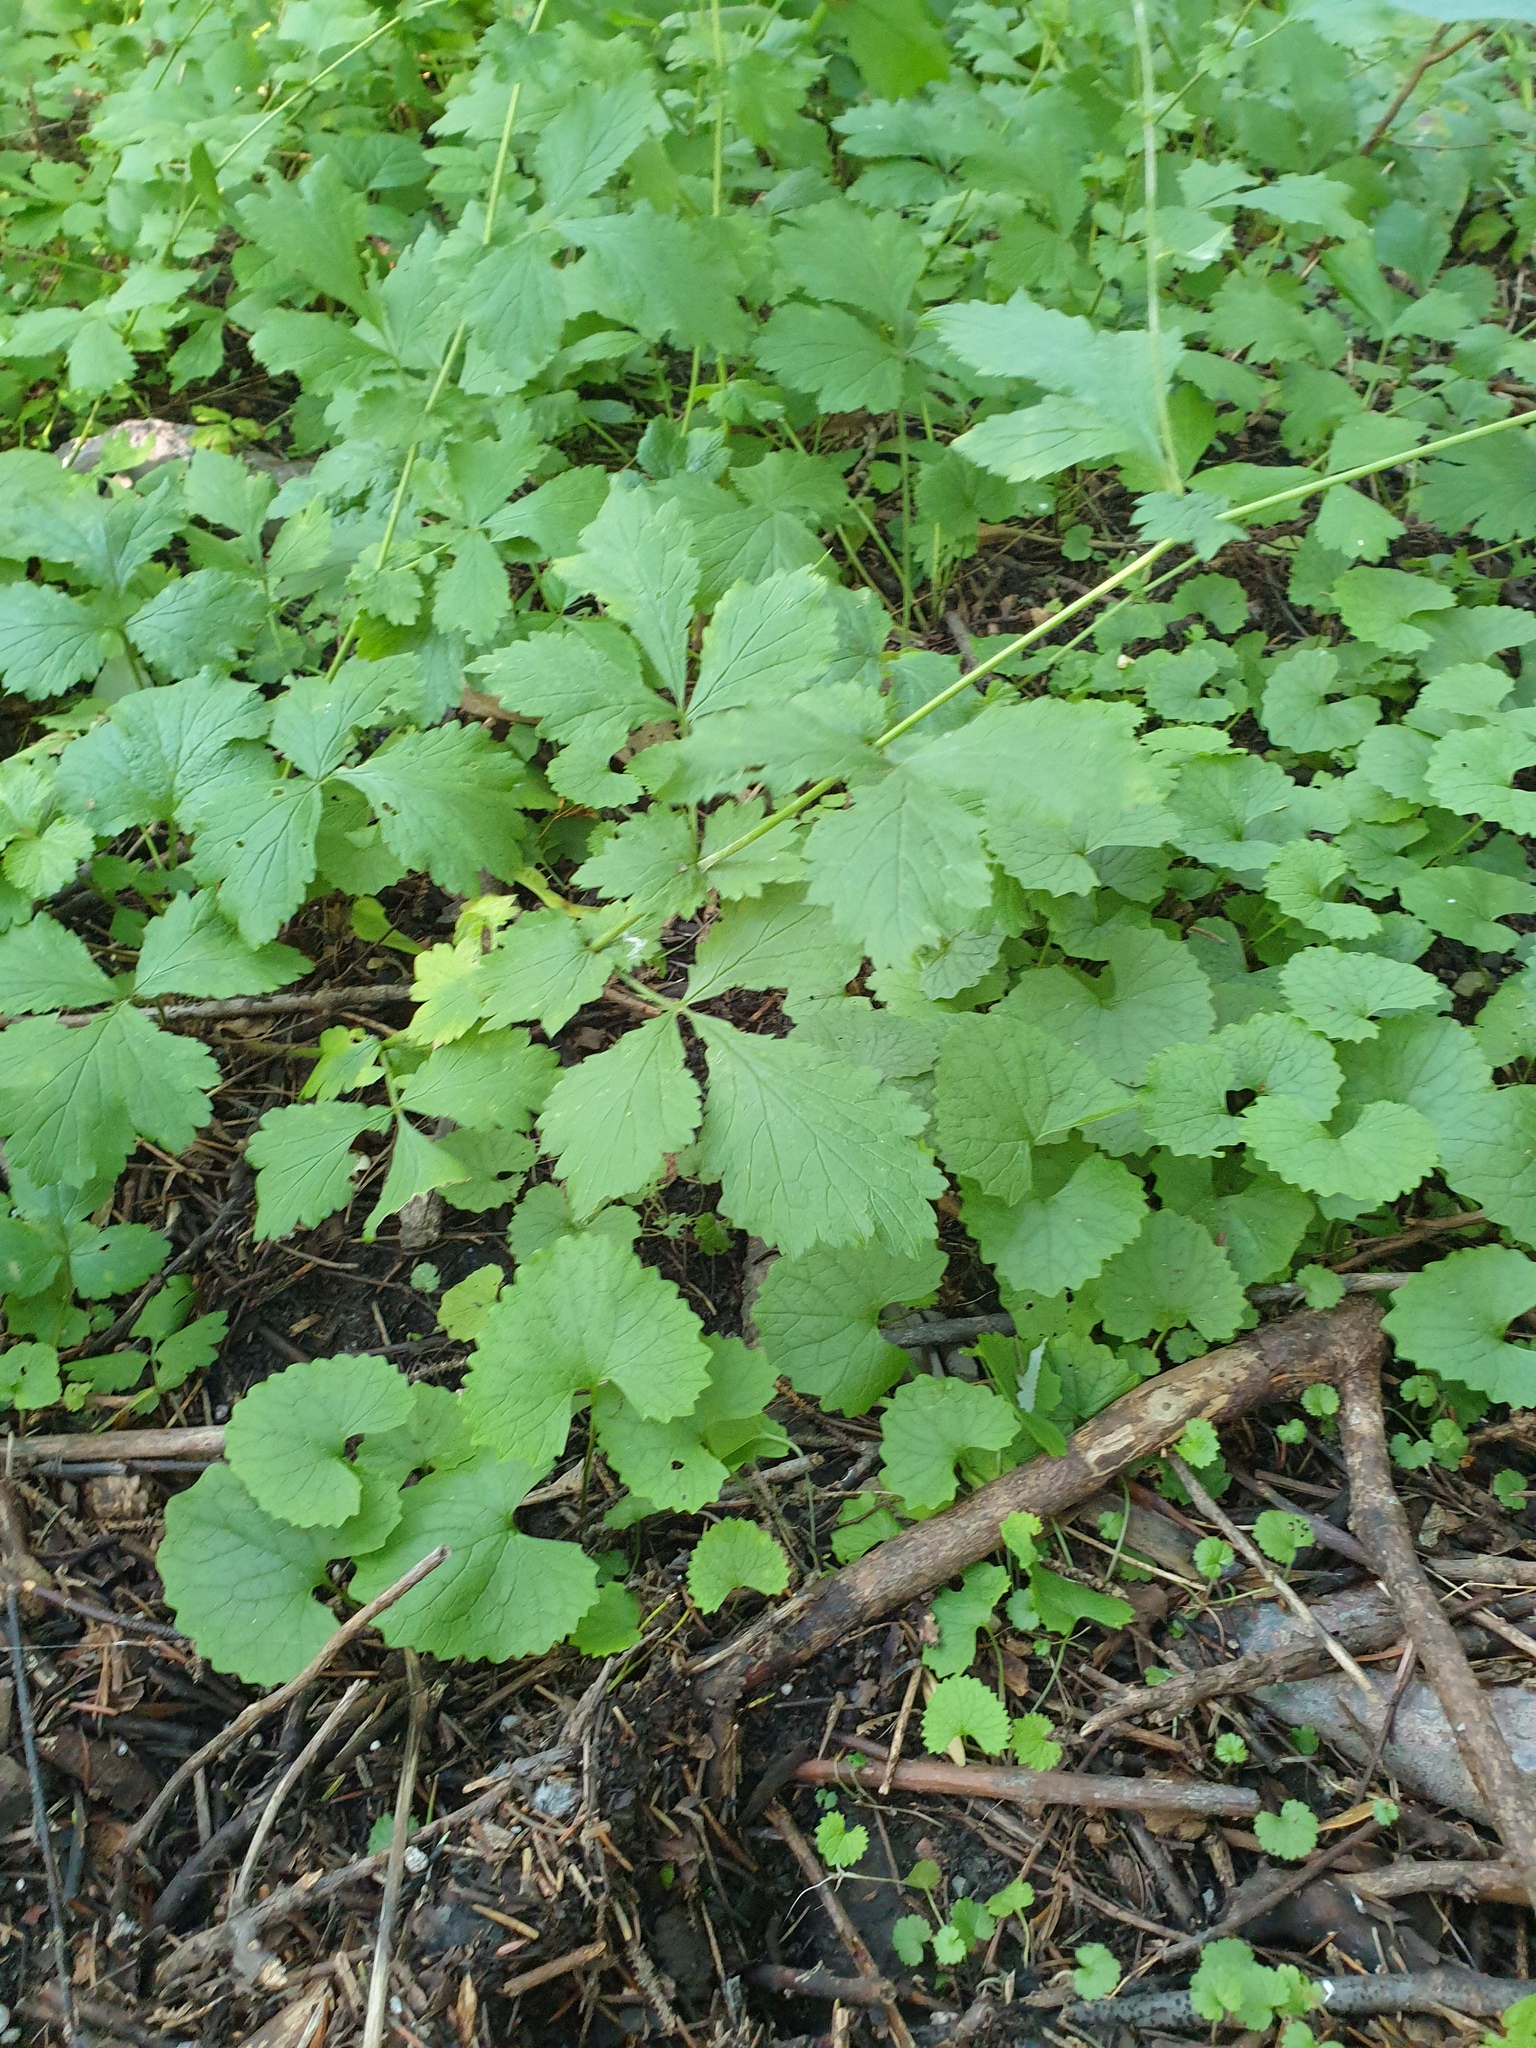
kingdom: Plantae
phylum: Tracheophyta
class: Magnoliopsida
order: Brassicales
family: Brassicaceae
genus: Alliaria
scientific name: Alliaria petiolata
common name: Garlic mustard
